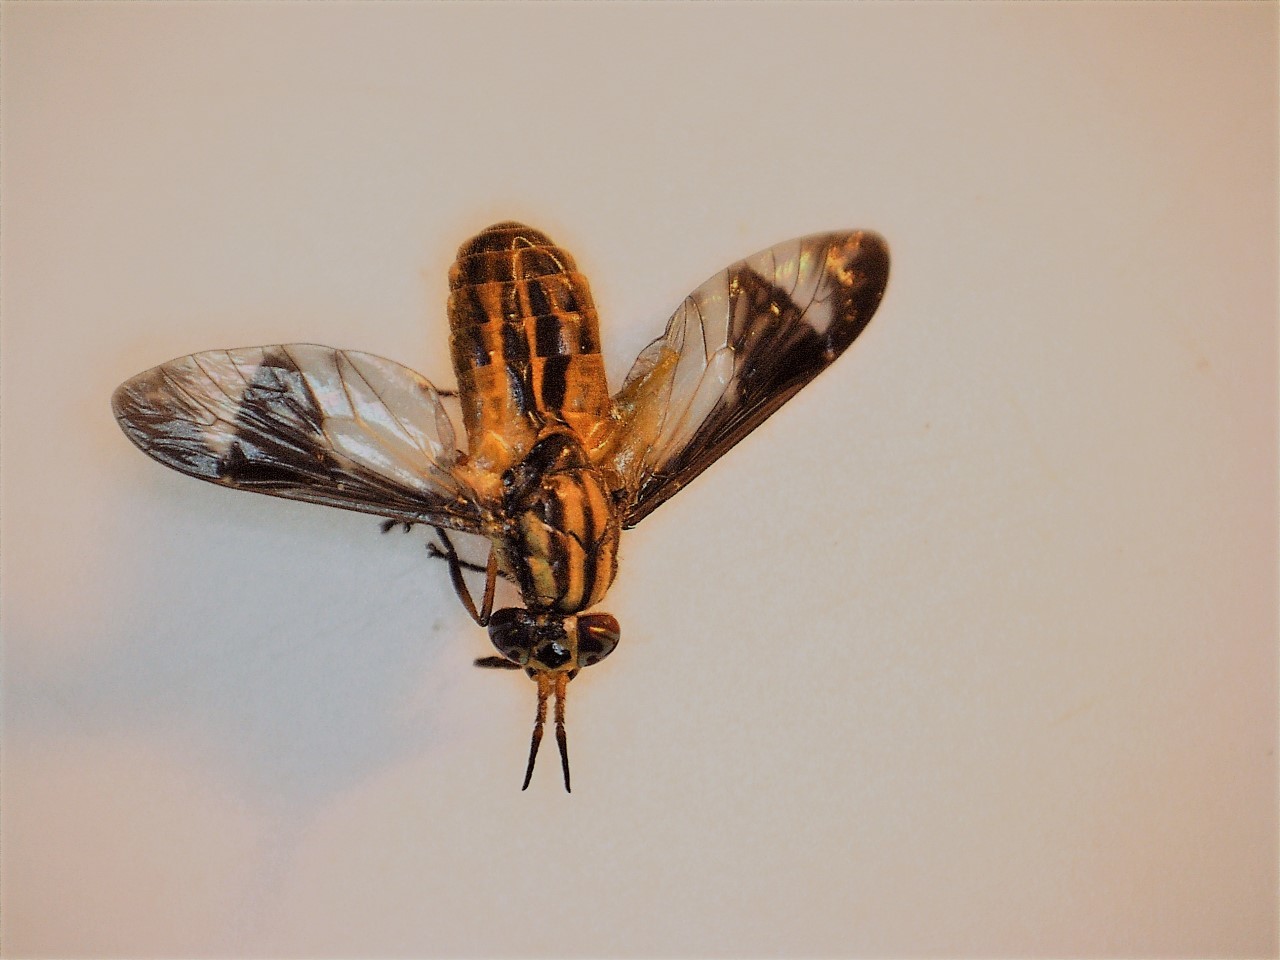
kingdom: Animalia
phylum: Arthropoda
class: Insecta
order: Diptera
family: Tabanidae
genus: Chrysops
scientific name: Chrysops montanus
